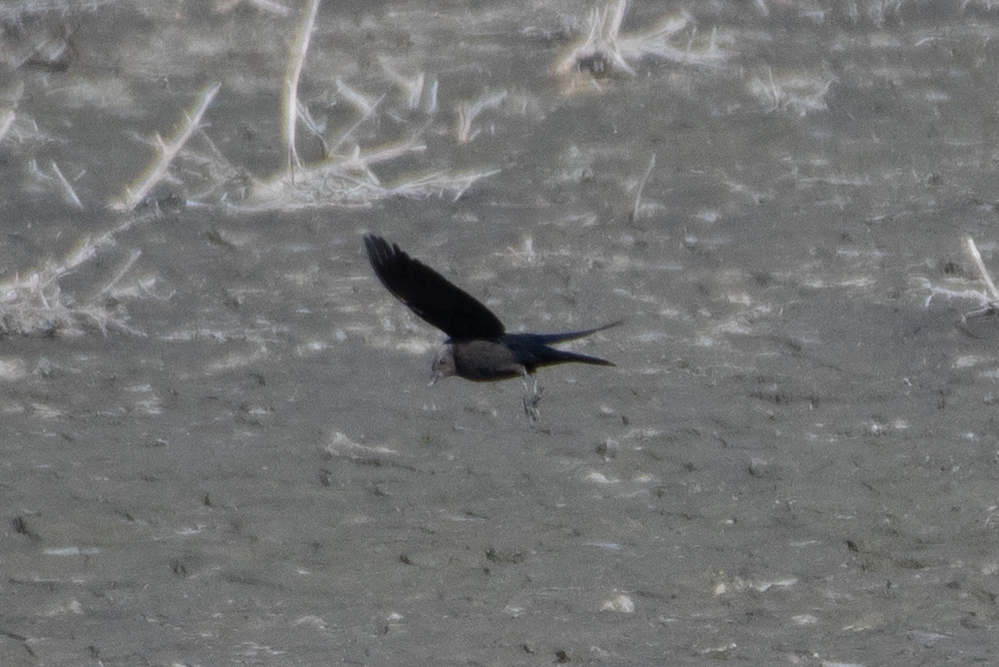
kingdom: Animalia
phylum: Chordata
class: Aves
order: Passeriformes
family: Icteridae
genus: Euphagus
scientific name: Euphagus cyanocephalus
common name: Brewer's blackbird
